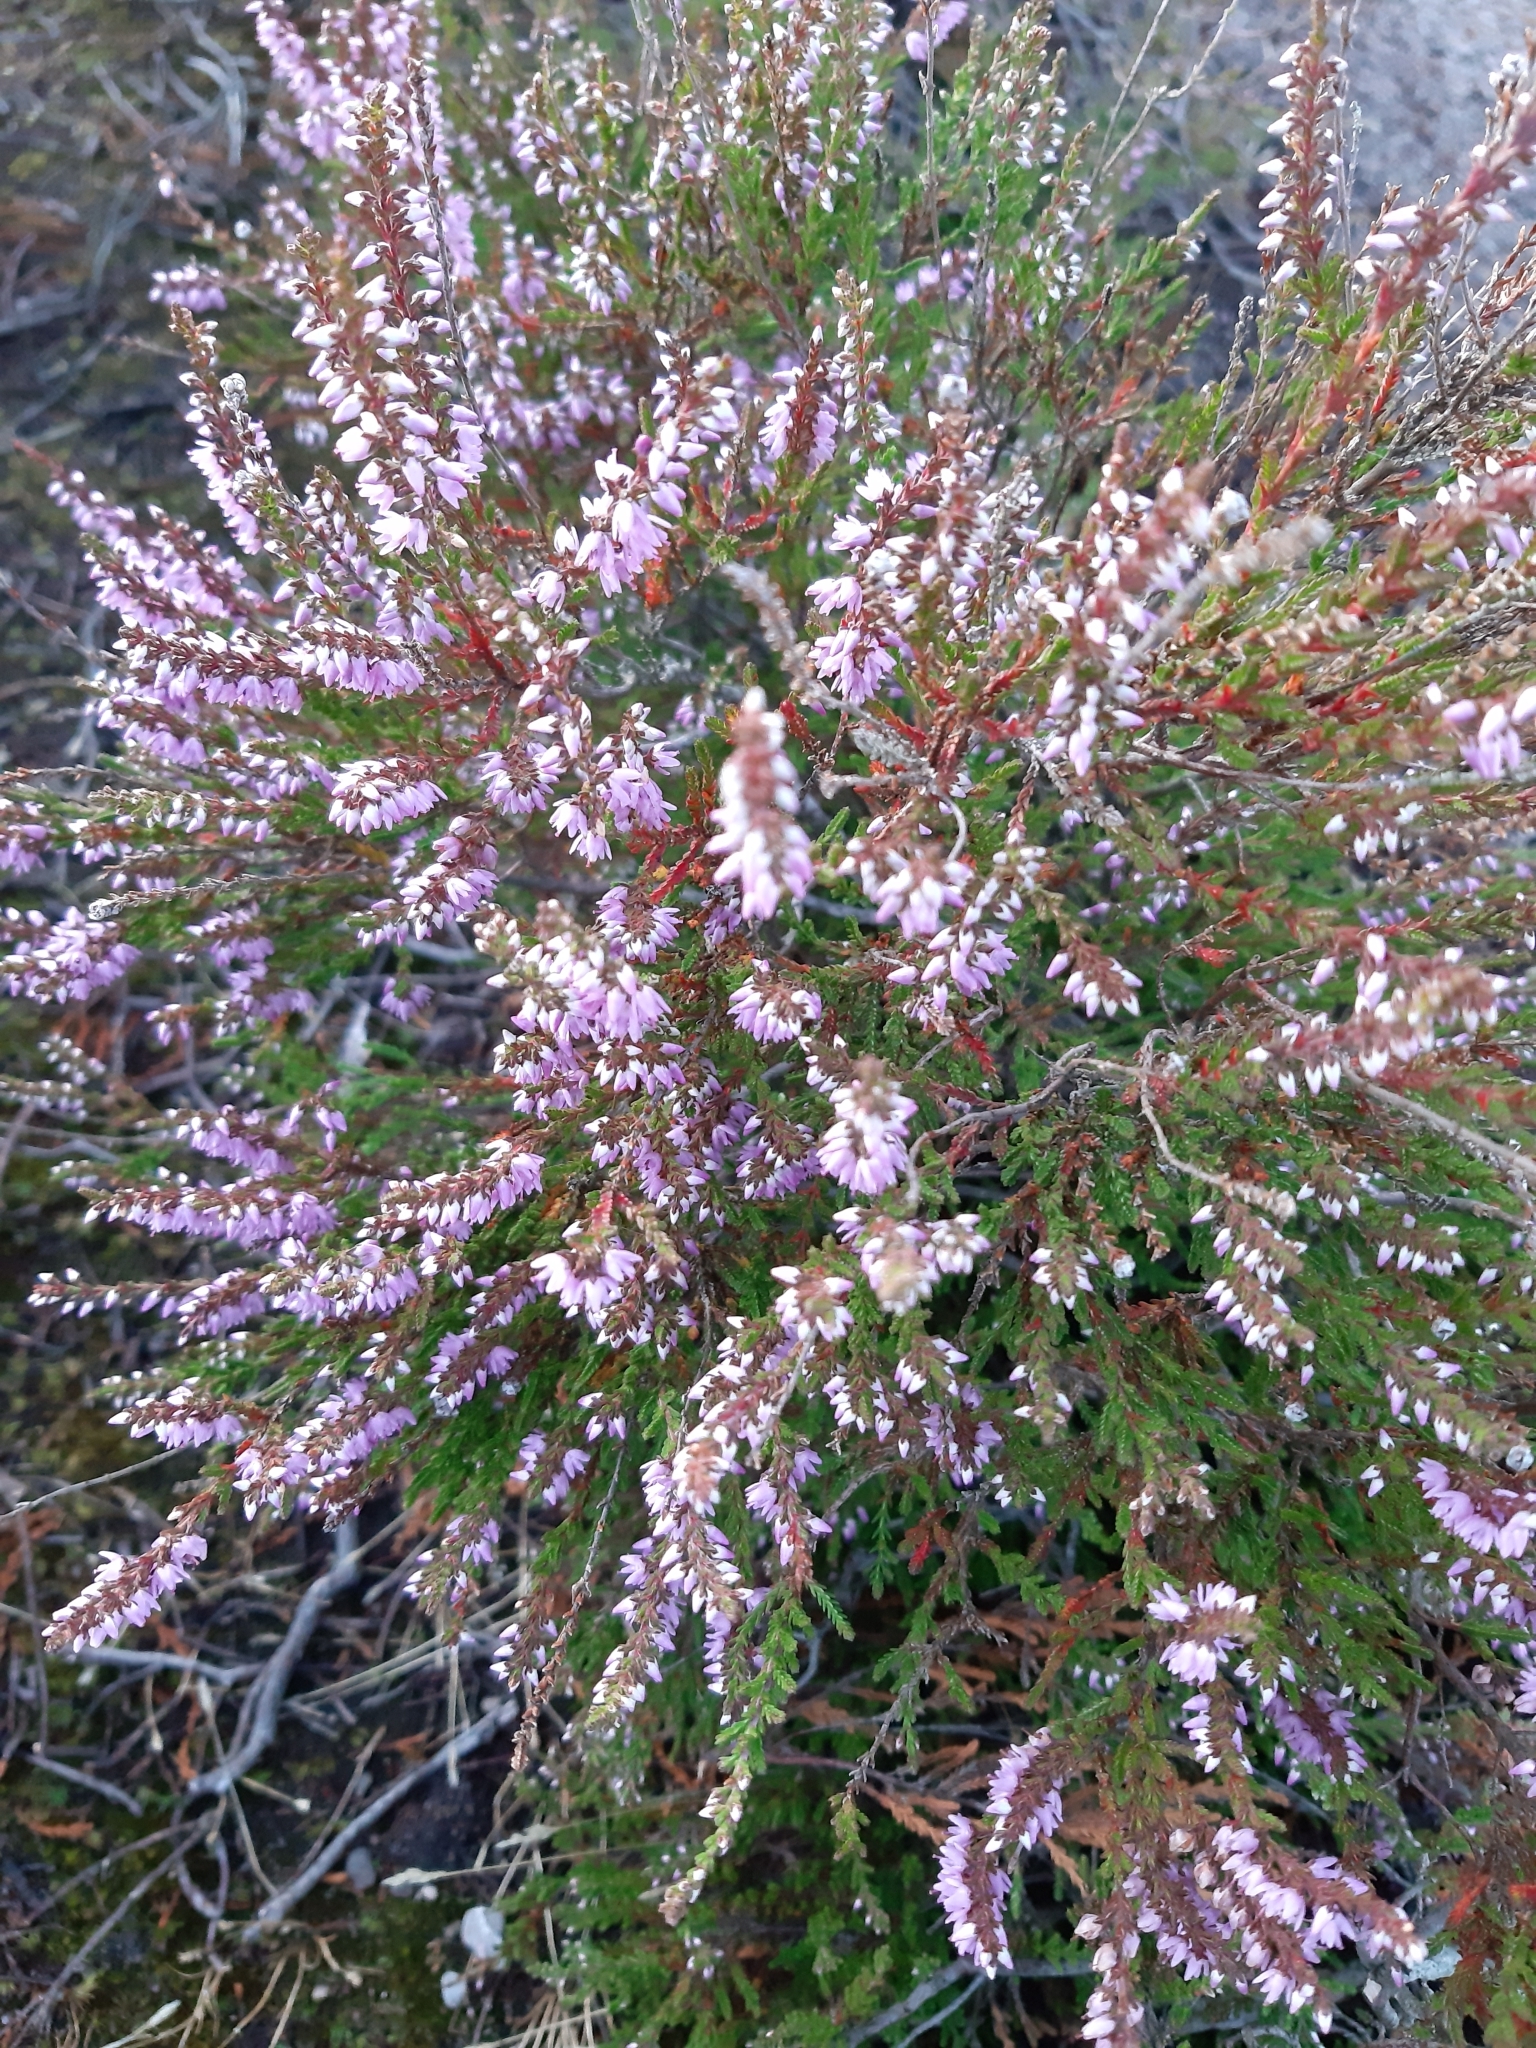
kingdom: Plantae
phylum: Tracheophyta
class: Magnoliopsida
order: Ericales
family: Ericaceae
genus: Calluna
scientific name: Calluna vulgaris
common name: Heather
